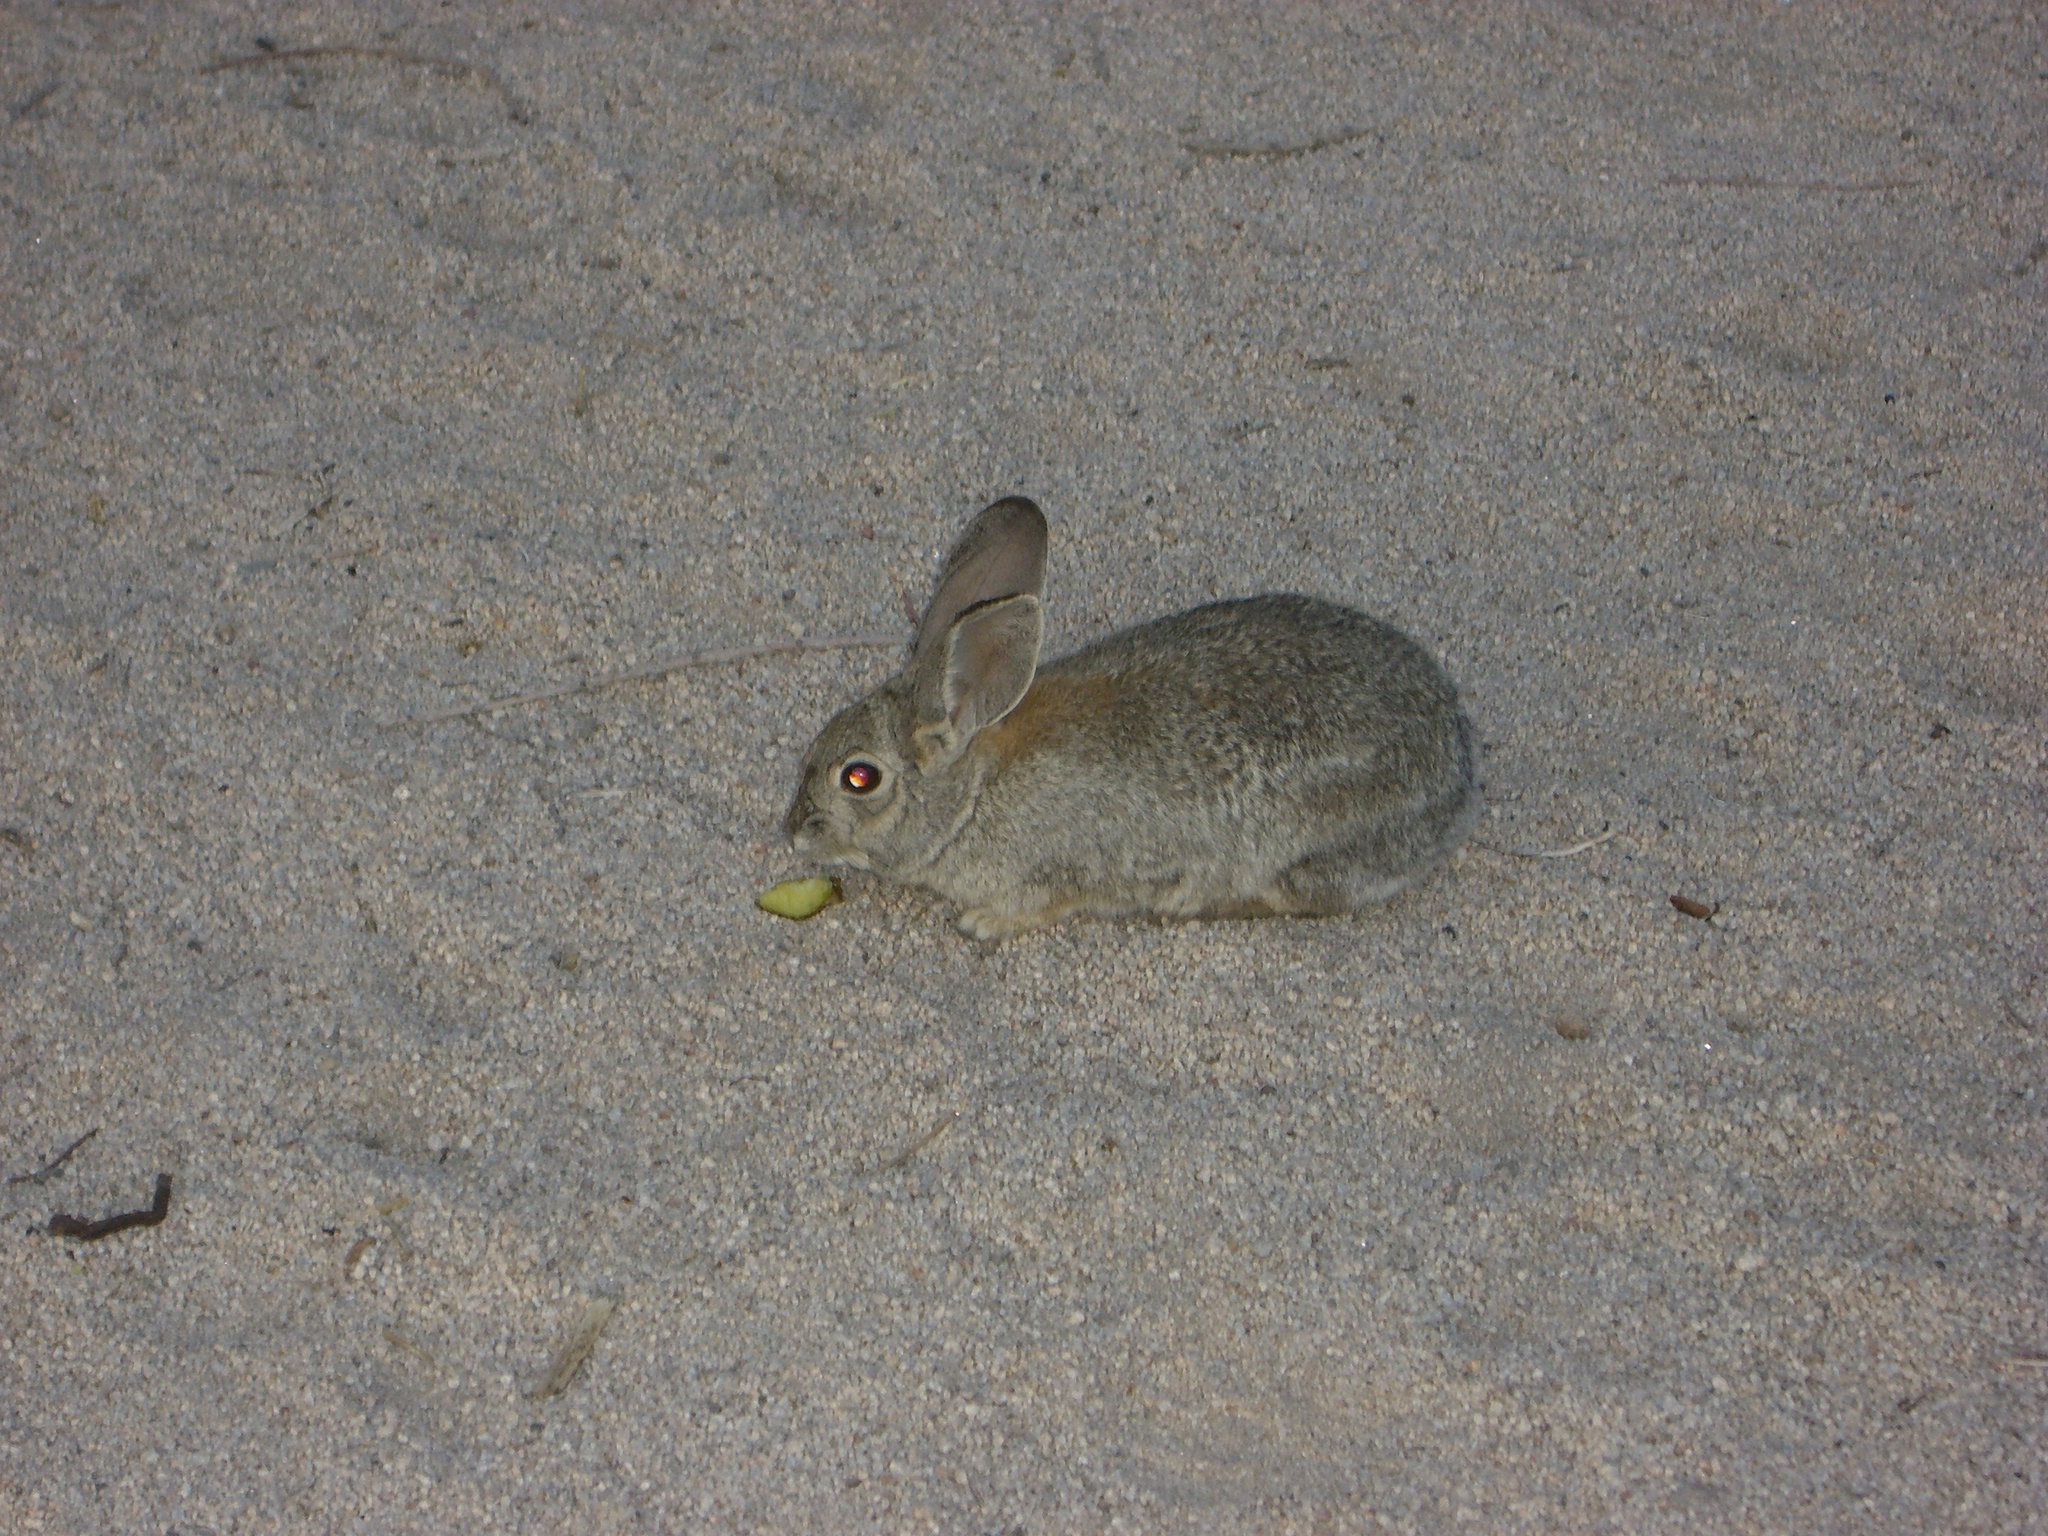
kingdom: Animalia
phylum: Chordata
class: Mammalia
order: Lagomorpha
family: Leporidae
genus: Sylvilagus
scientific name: Sylvilagus audubonii
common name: Desert cottontail
